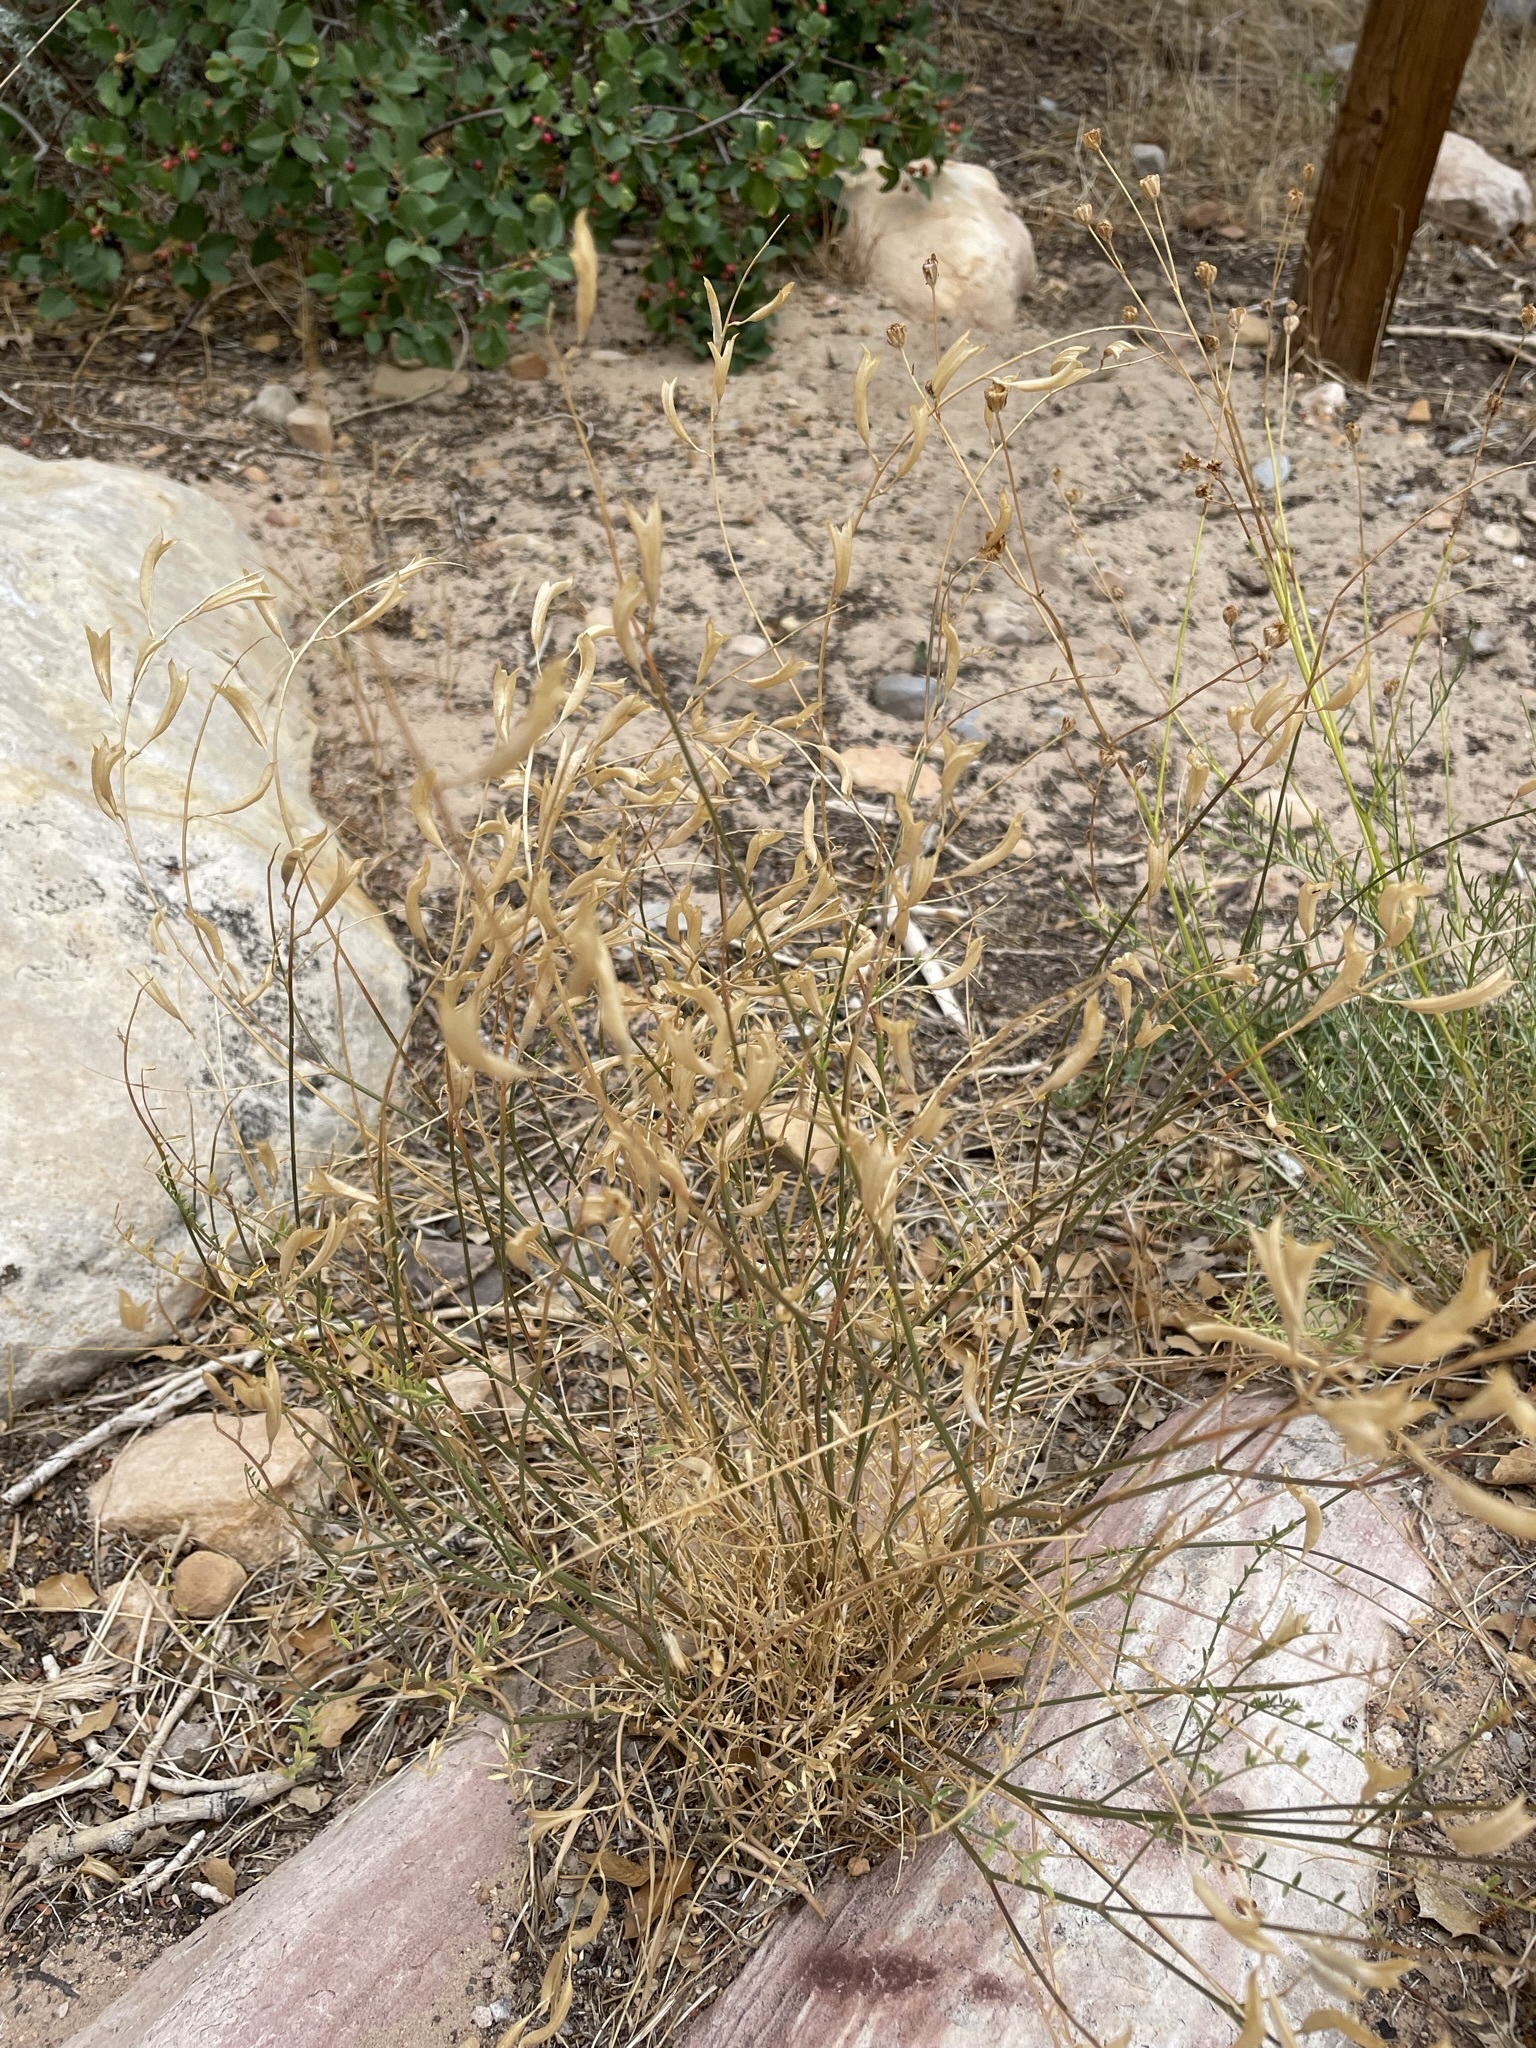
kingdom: Plantae
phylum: Tracheophyta
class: Magnoliopsida
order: Fabales
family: Fabaceae
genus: Astragalus
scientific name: Astragalus remotus
